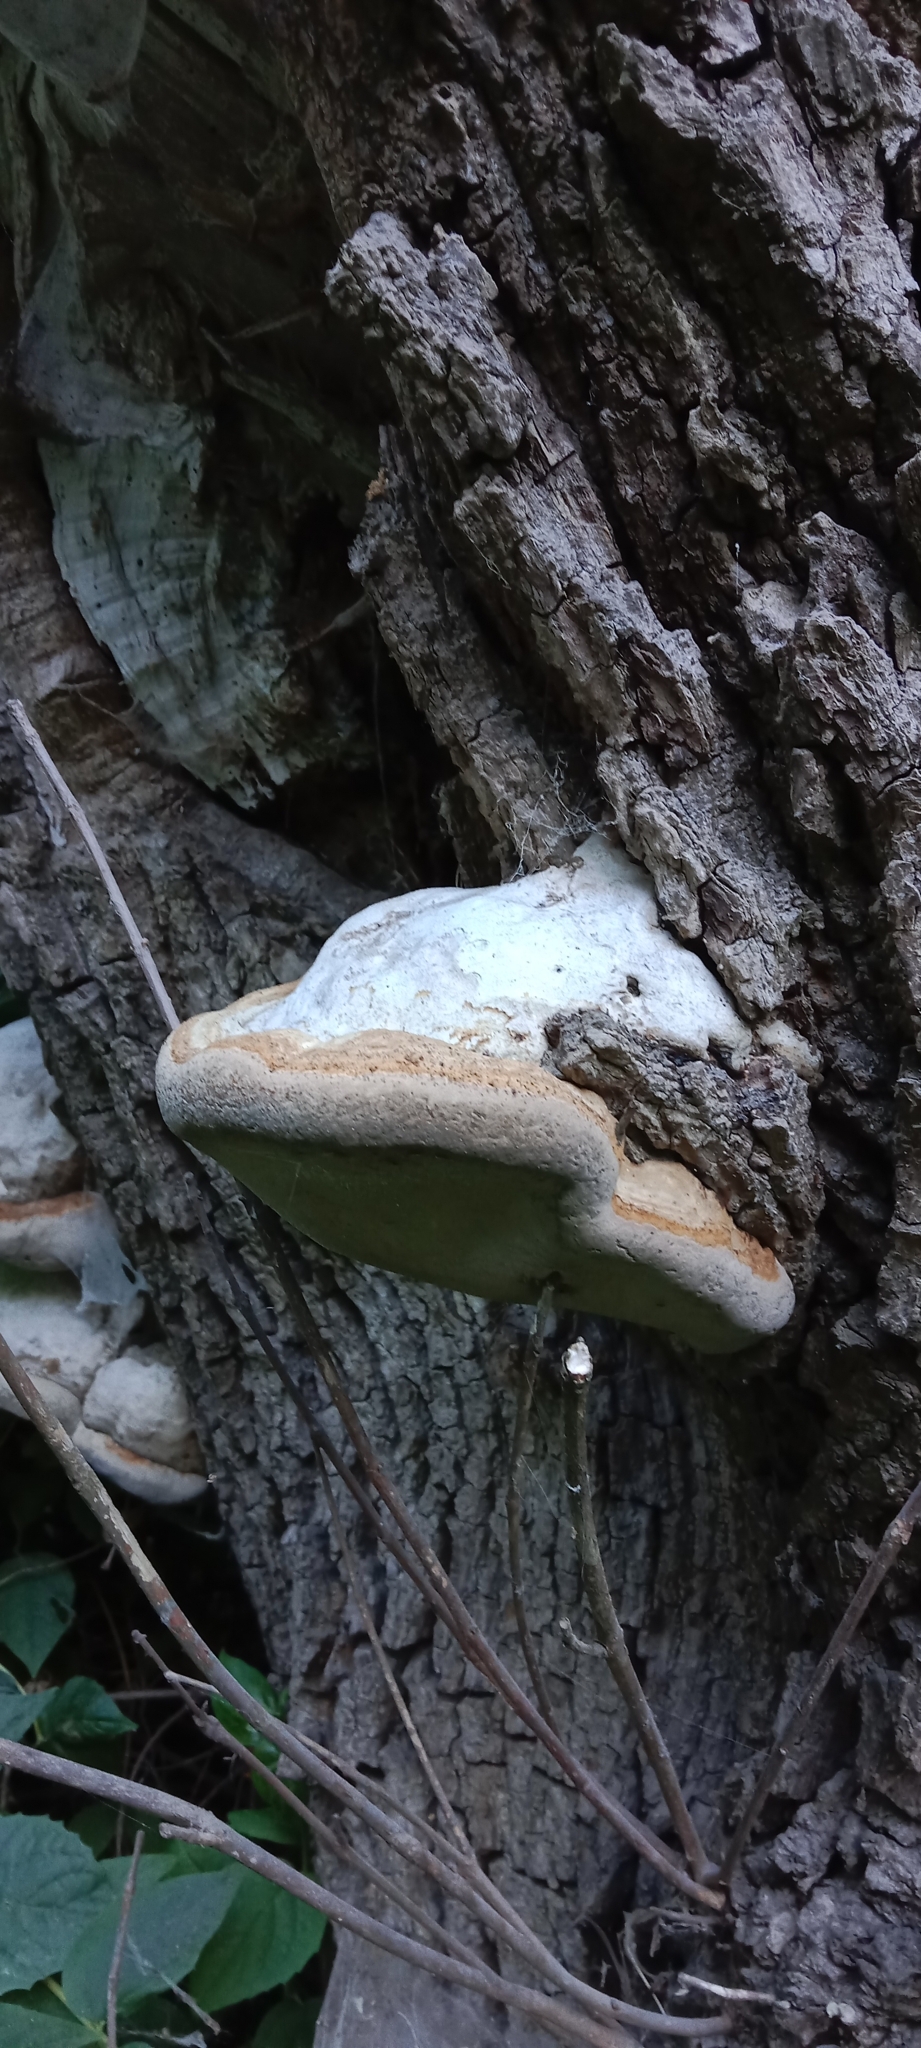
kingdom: Fungi
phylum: Basidiomycota
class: Agaricomycetes
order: Polyporales
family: Polyporaceae
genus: Fomes
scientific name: Fomes fomentarius
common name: Hoof fungus
